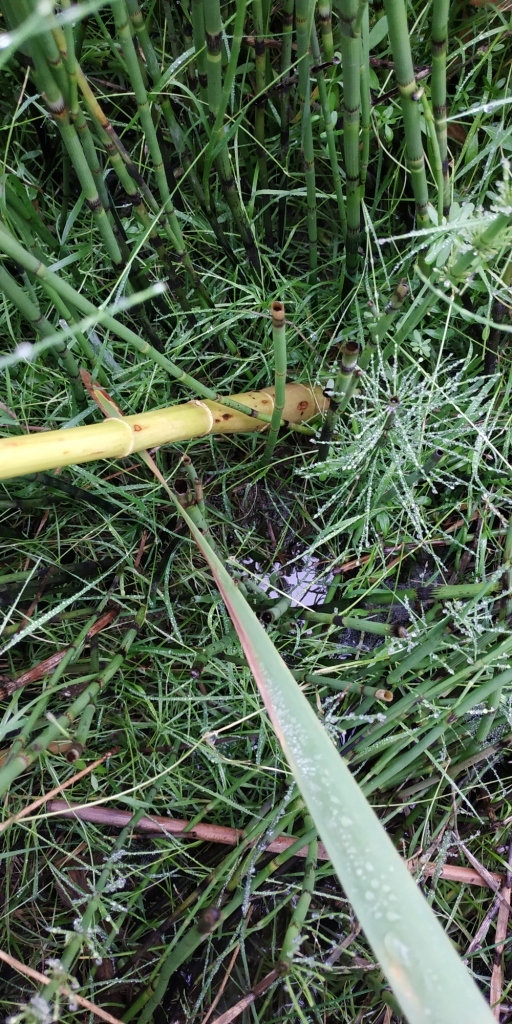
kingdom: Plantae
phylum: Tracheophyta
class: Magnoliopsida
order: Apiales
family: Apiaceae
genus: Oenanthe
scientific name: Oenanthe aquatica
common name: Fine-leaved water-dropwort
